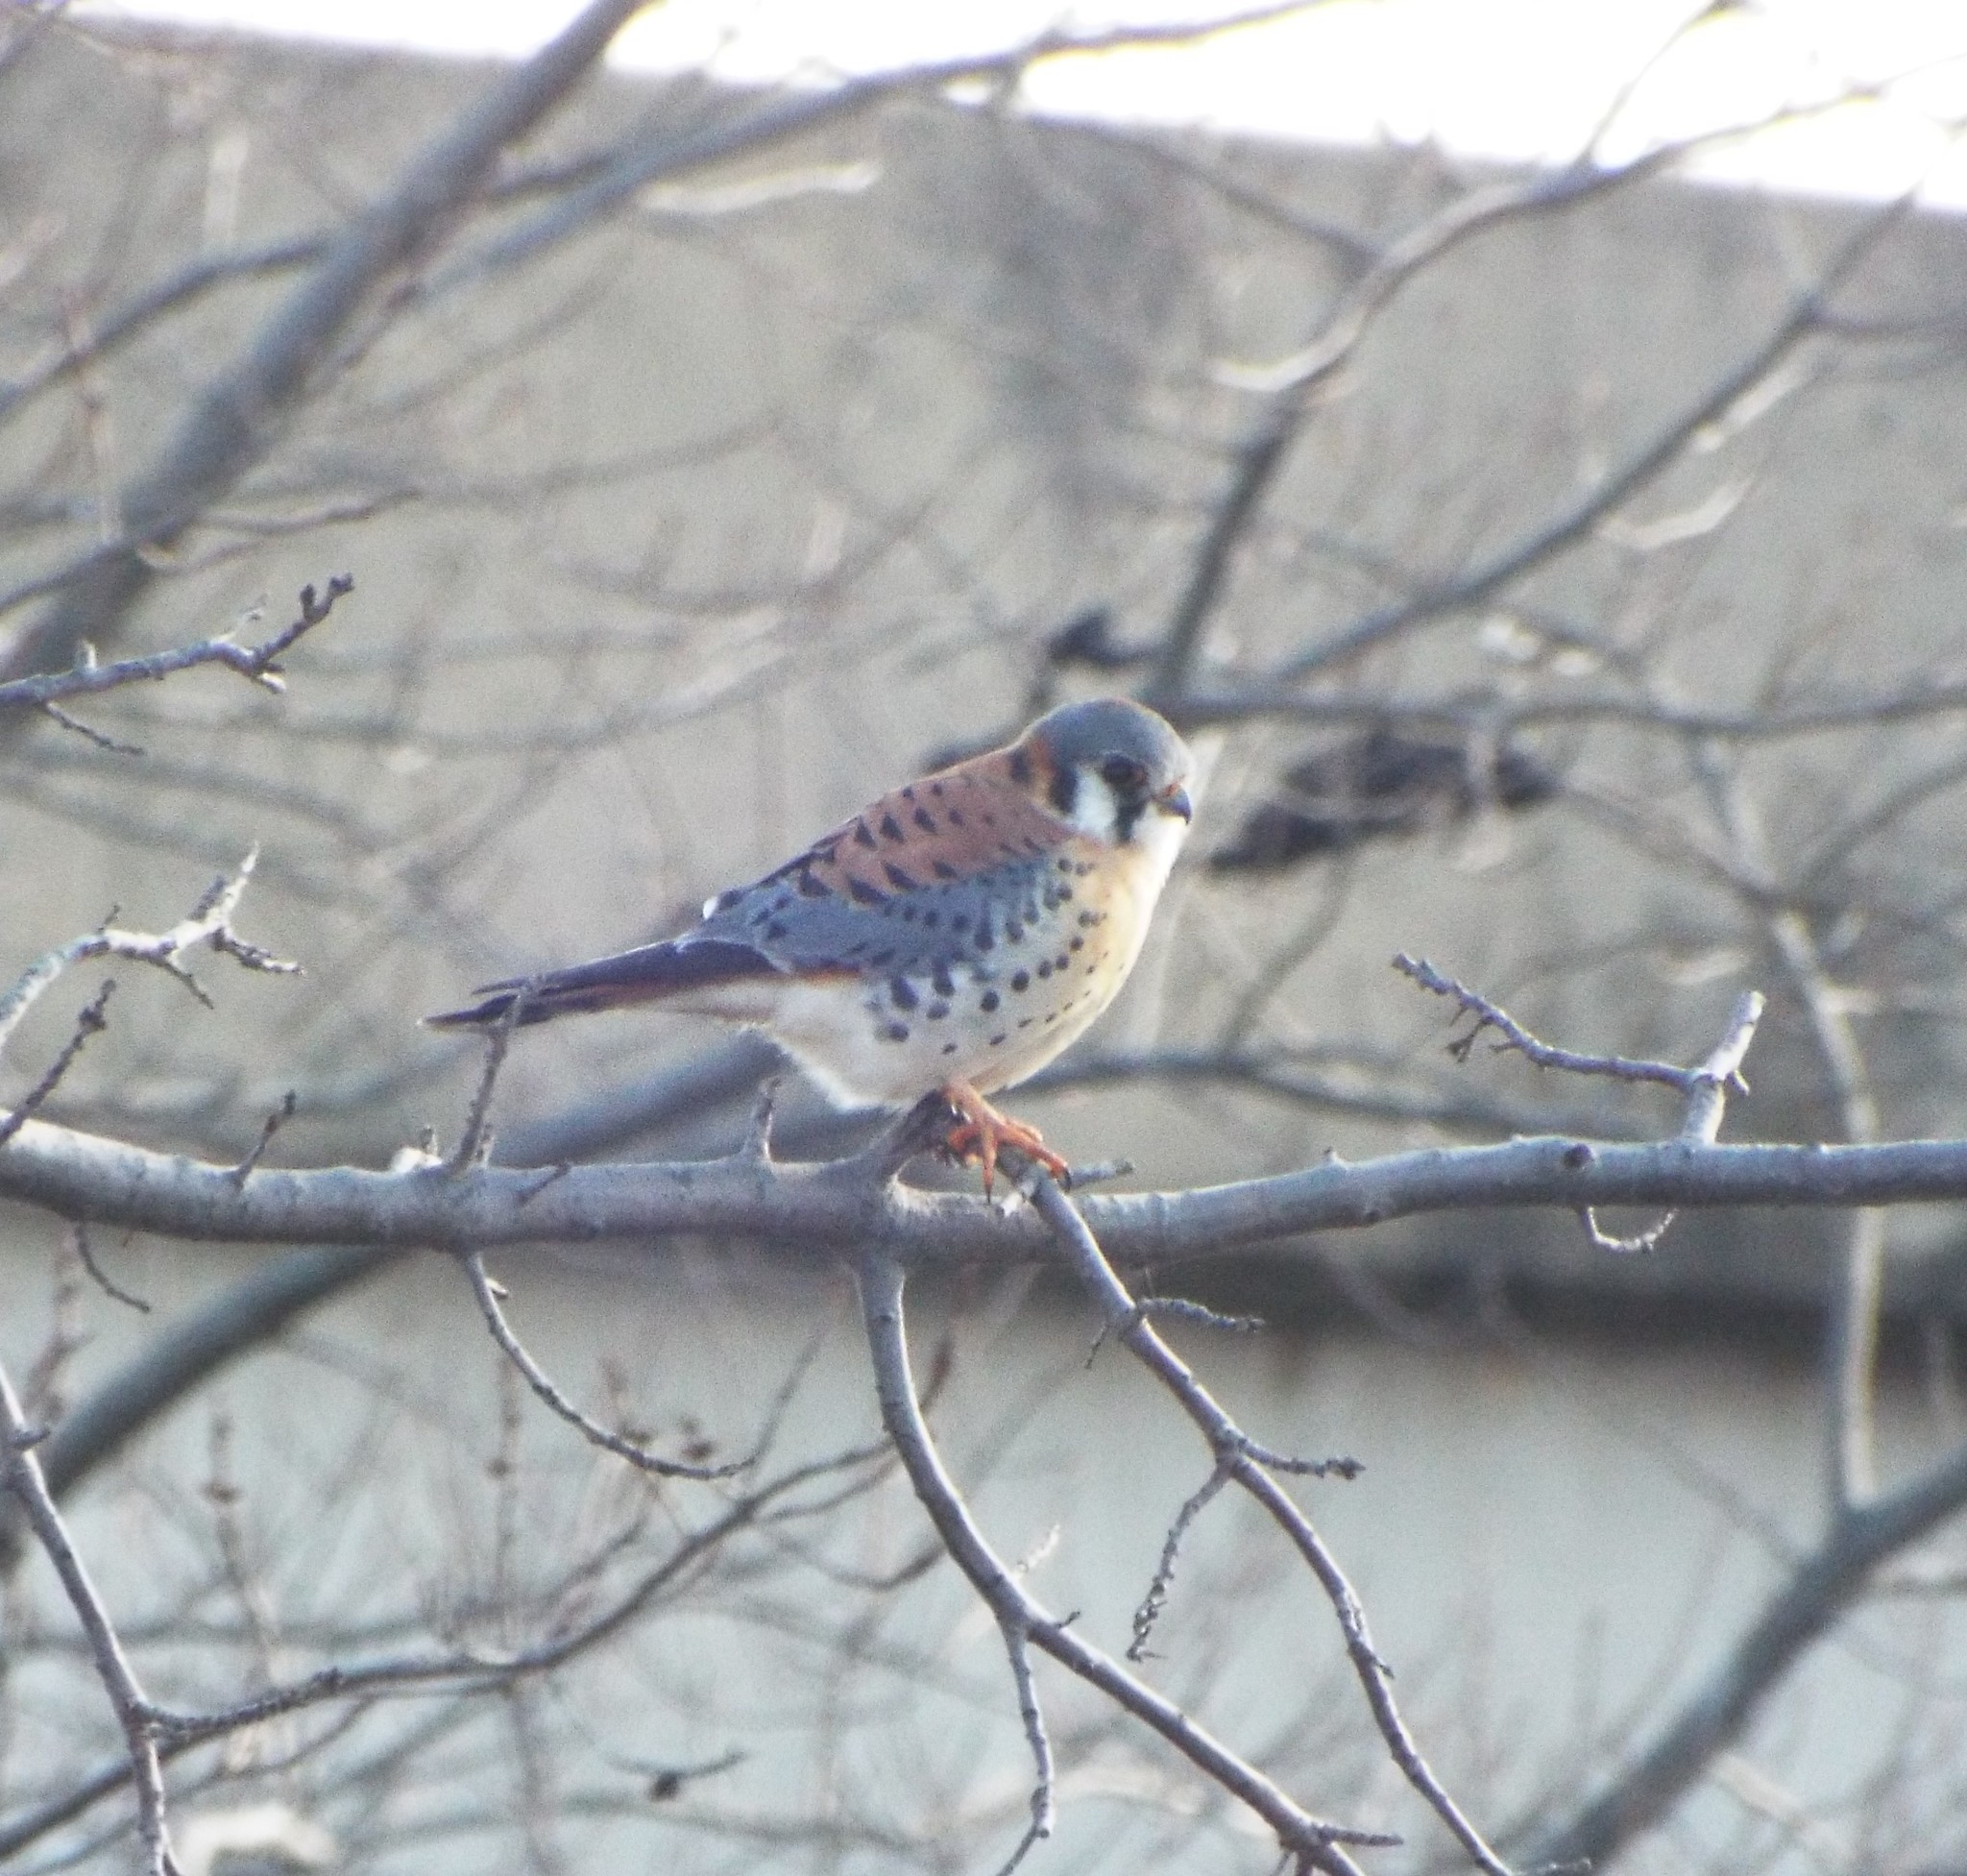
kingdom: Animalia
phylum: Chordata
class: Aves
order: Falconiformes
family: Falconidae
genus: Falco
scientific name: Falco sparverius
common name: American kestrel
